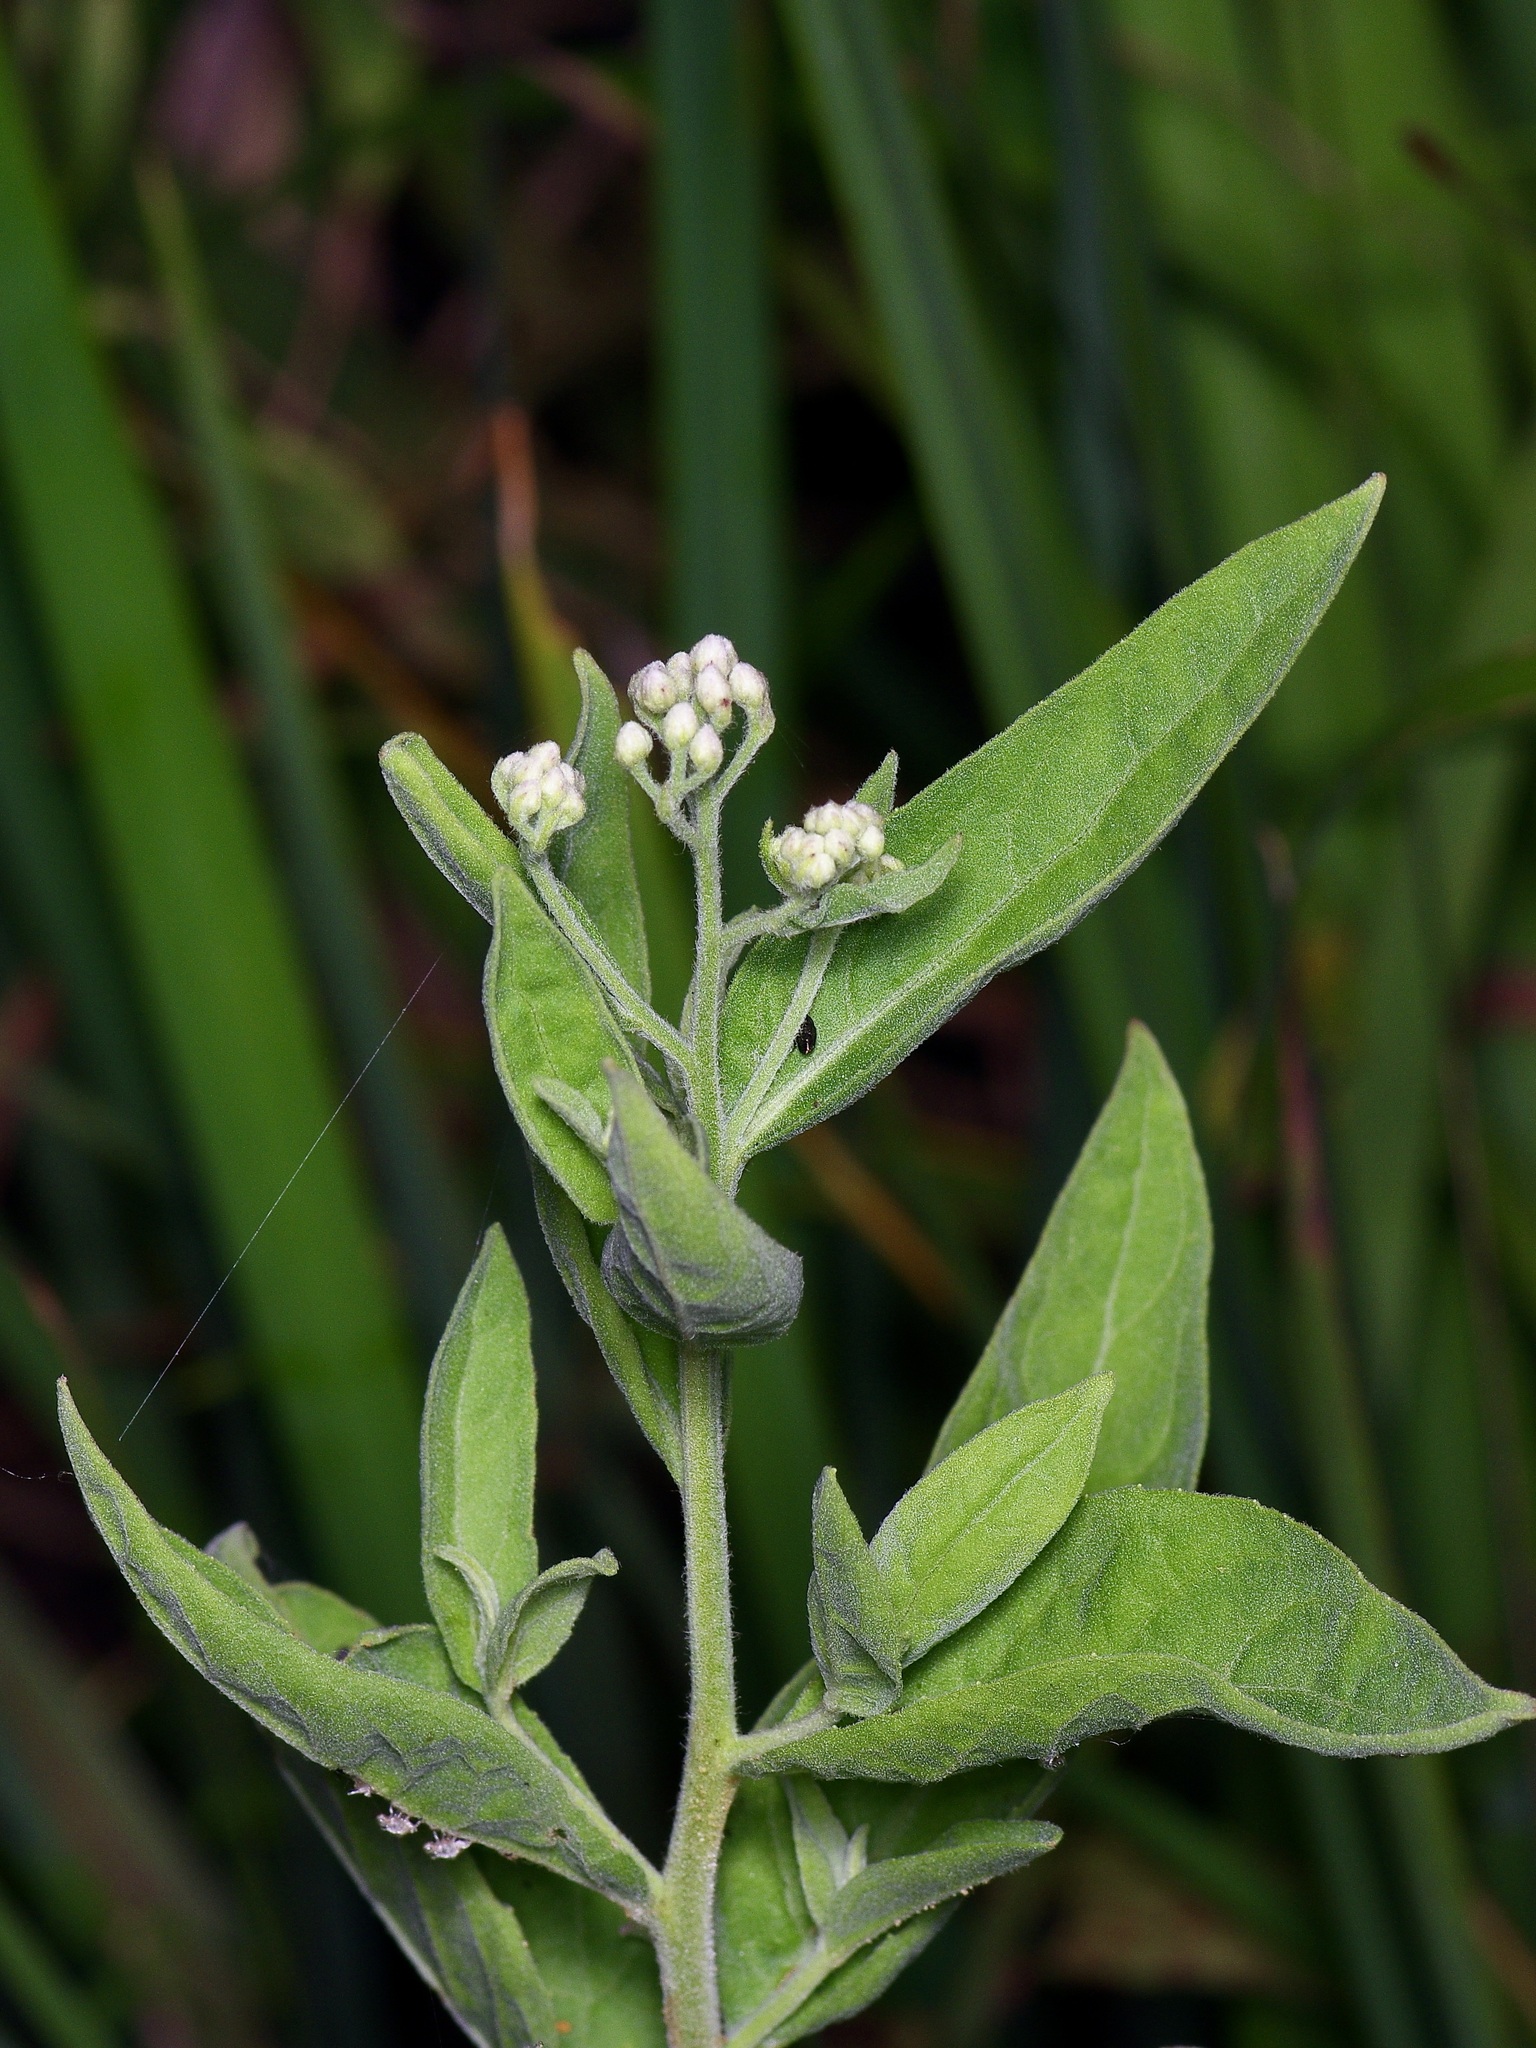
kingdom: Plantae
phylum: Tracheophyta
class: Magnoliopsida
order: Asterales
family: Asteraceae
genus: Pluchea
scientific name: Pluchea odorata
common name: Saltmarsh fleabane
